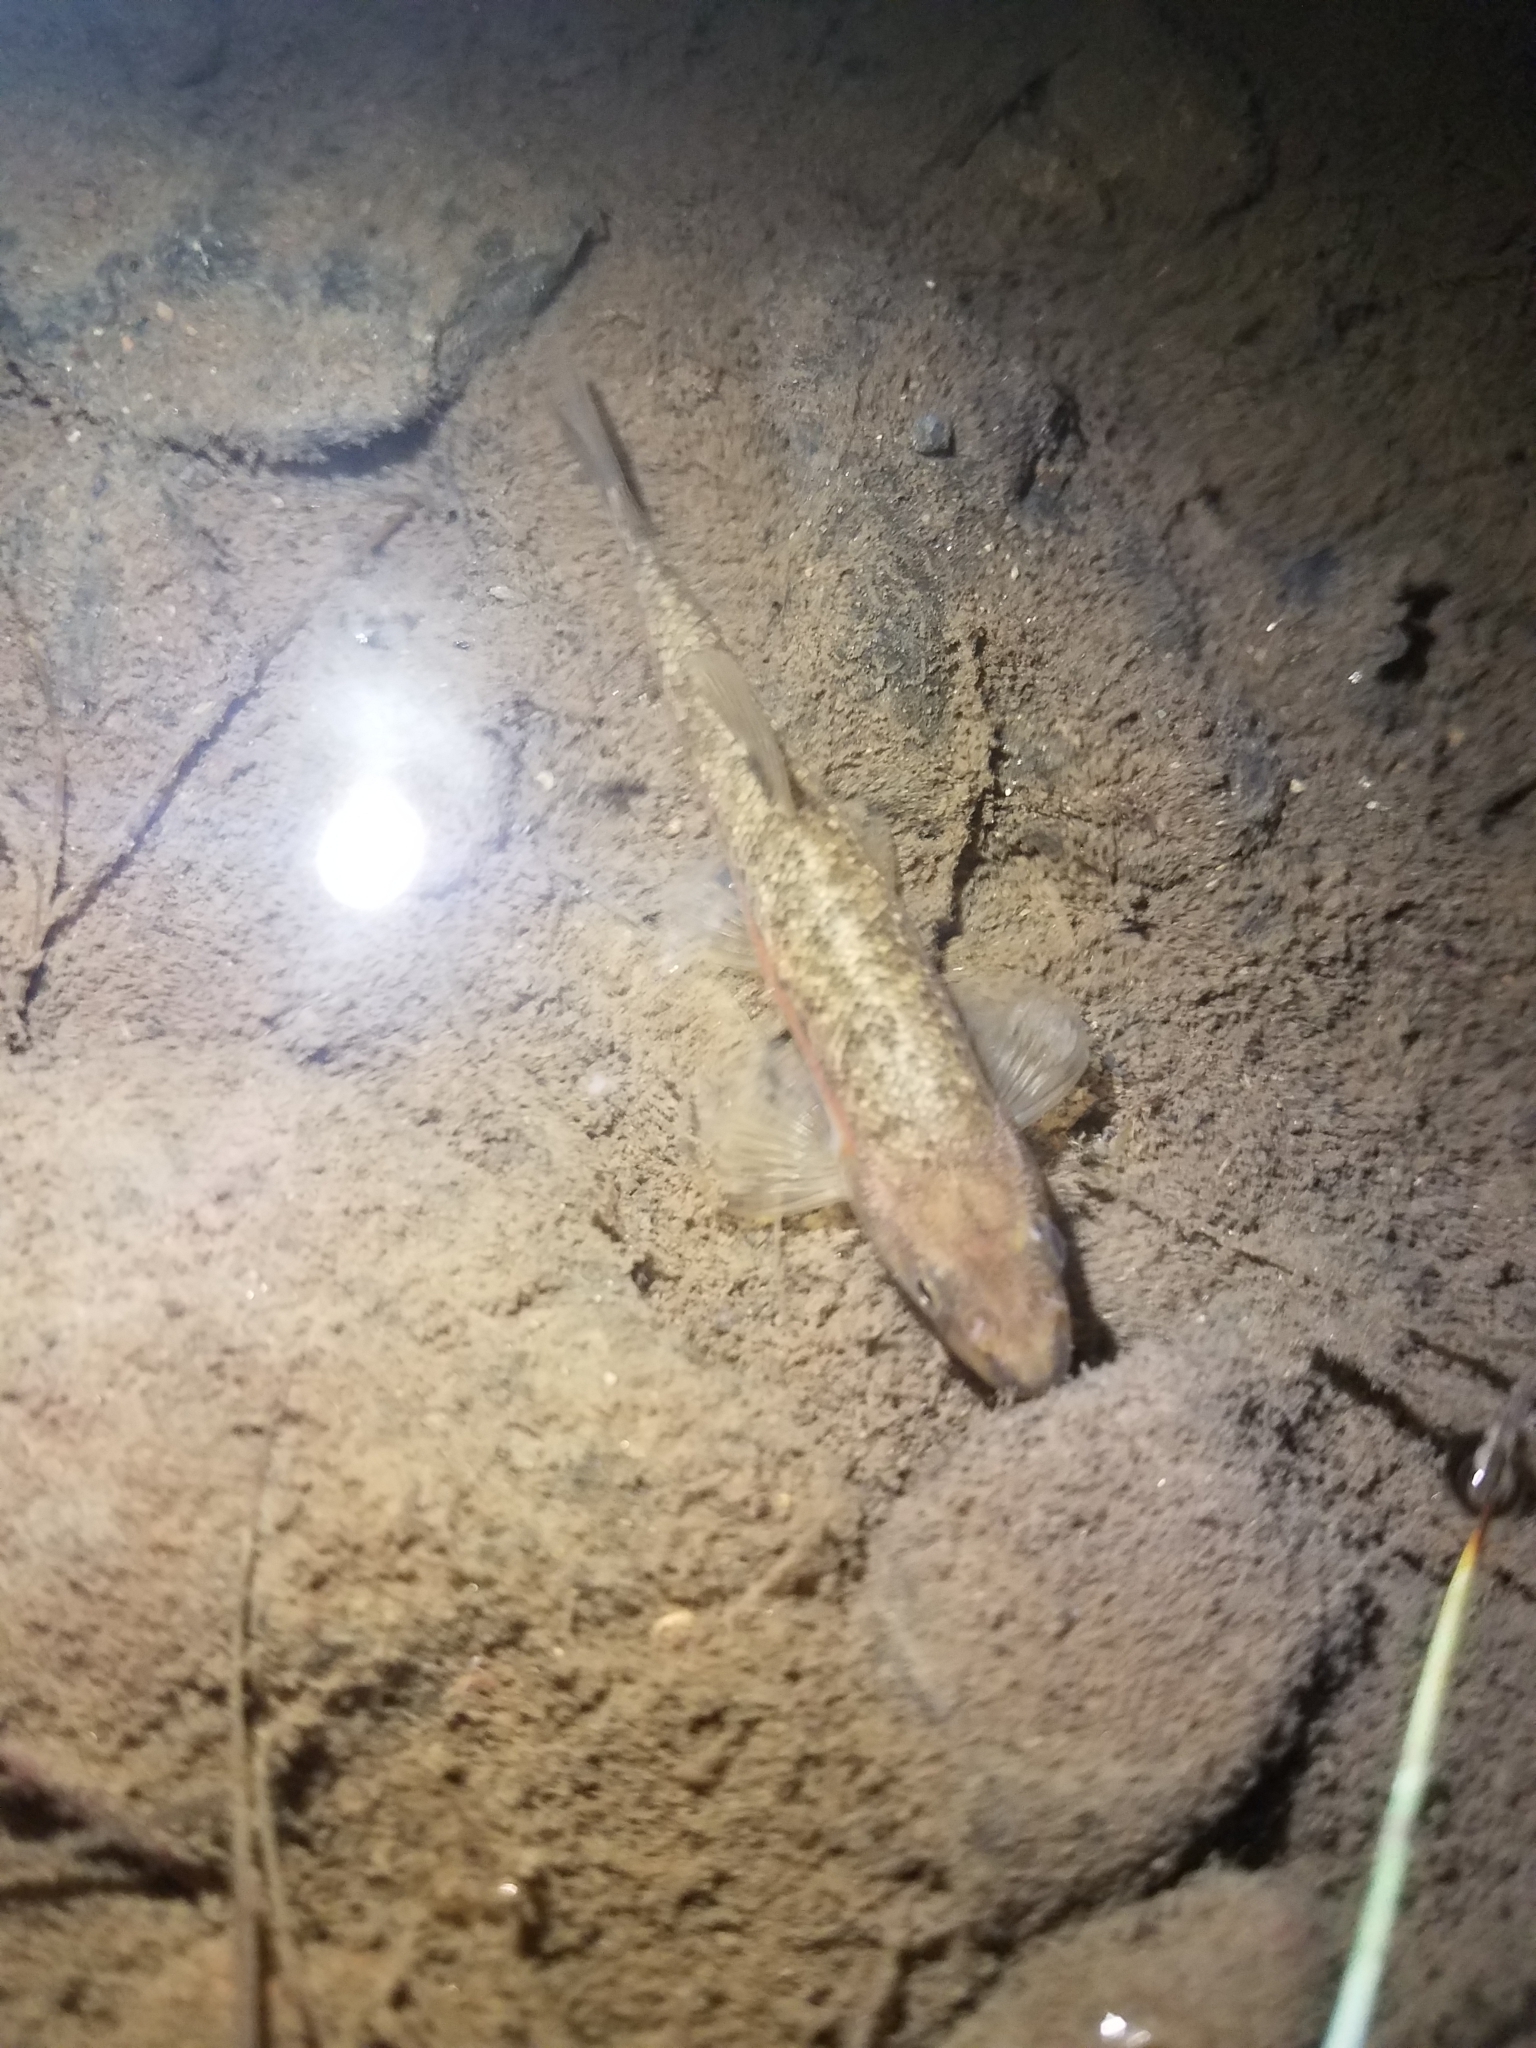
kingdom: Animalia
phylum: Chordata
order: Cypriniformes
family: Cyprinidae
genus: Rhinichthys
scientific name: Rhinichthys atratulus
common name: Eastern blacknose dace
